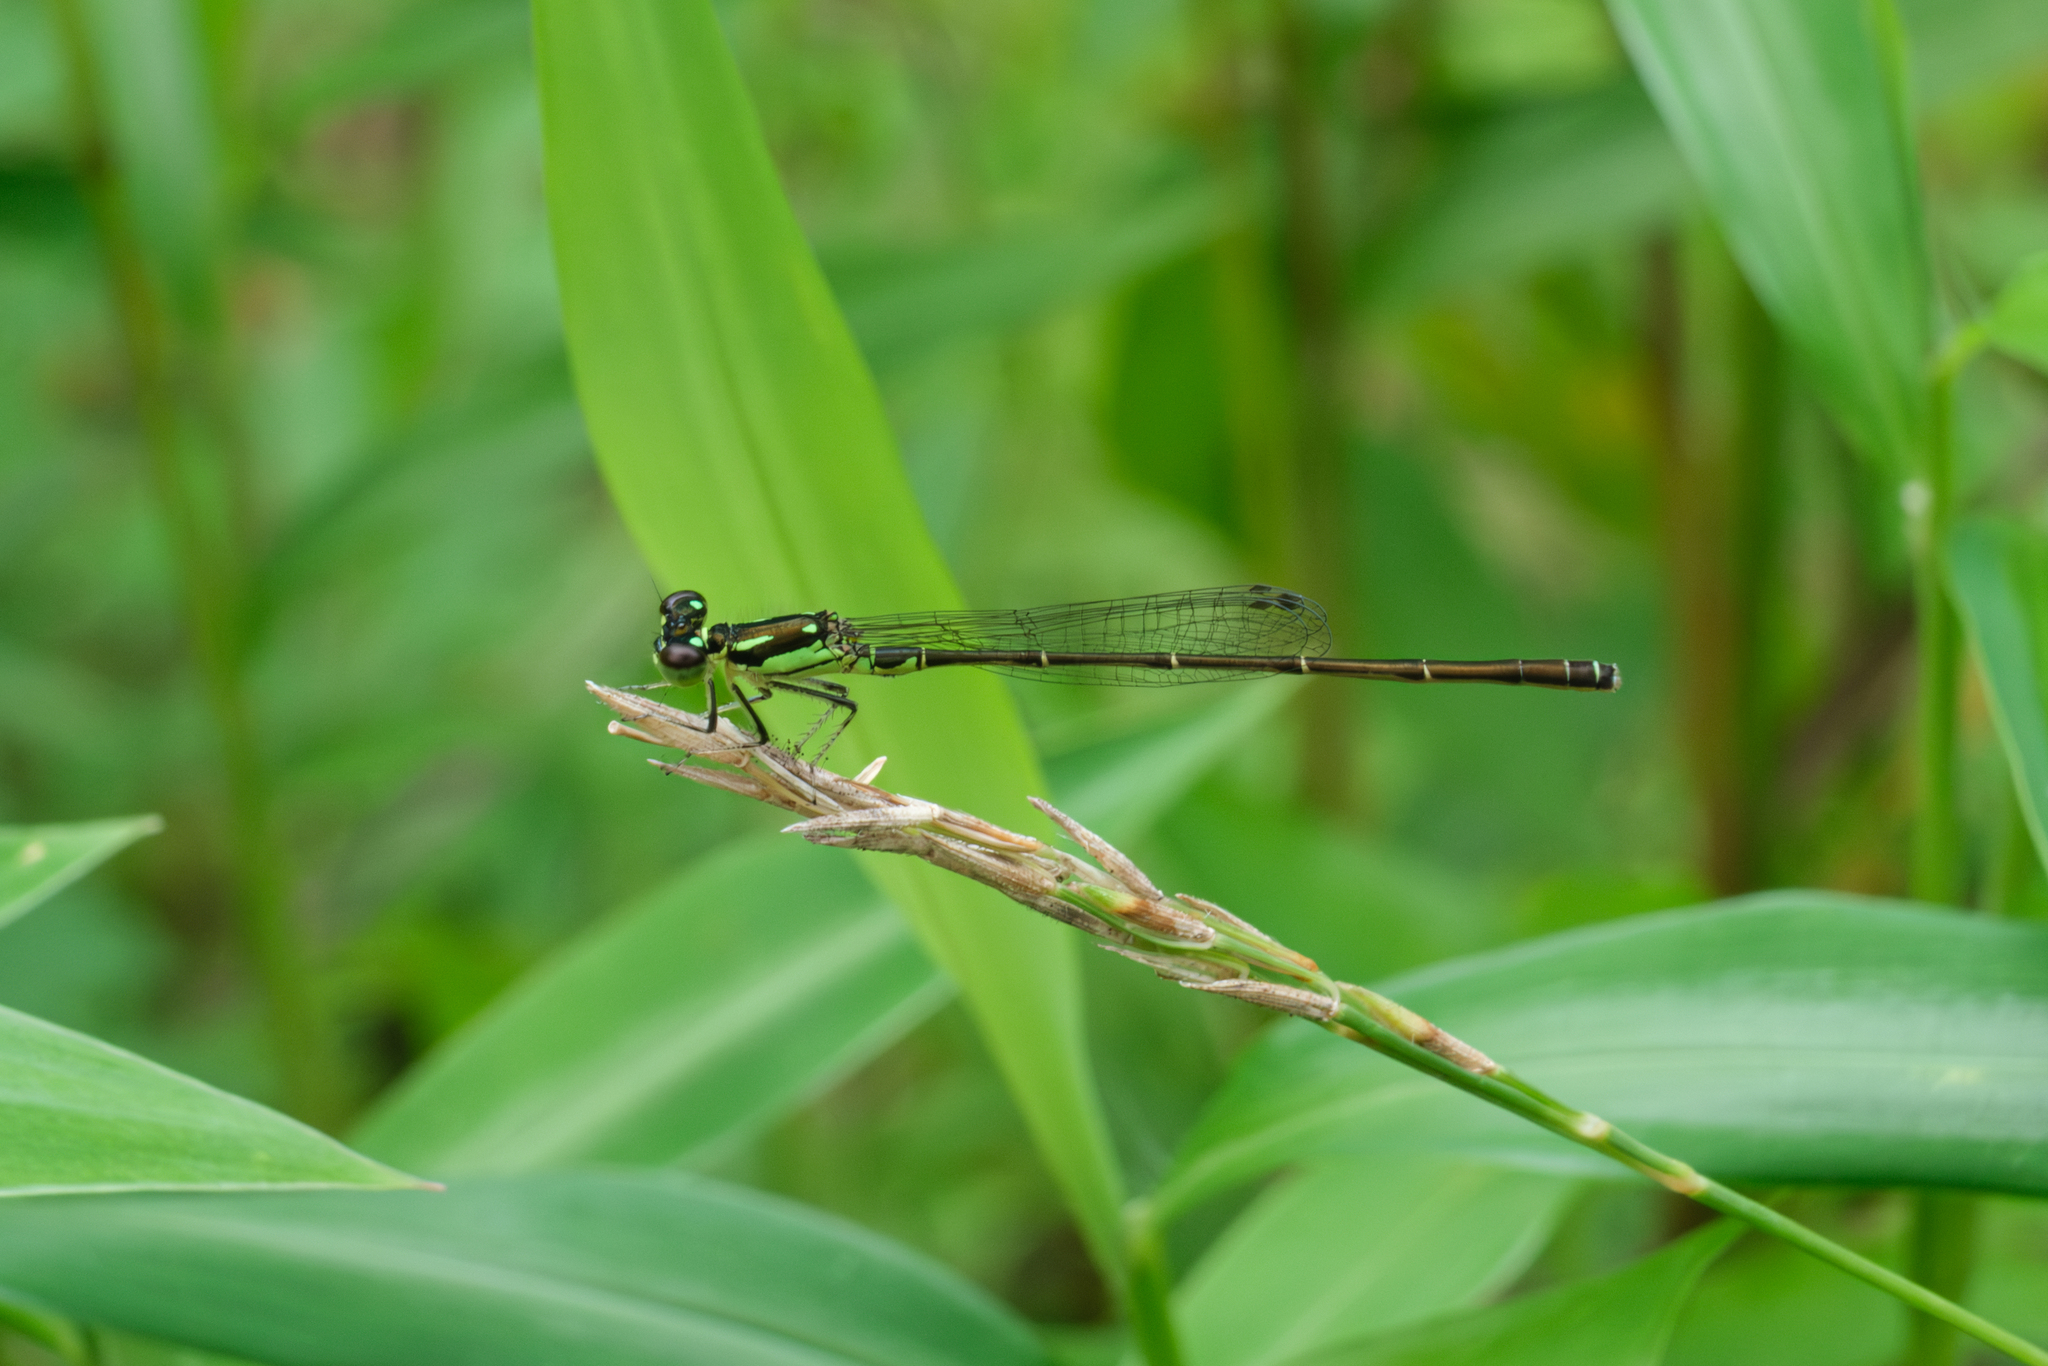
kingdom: Animalia
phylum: Arthropoda
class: Insecta
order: Odonata
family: Coenagrionidae
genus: Ischnura
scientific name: Ischnura posita
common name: Fragile forktail
